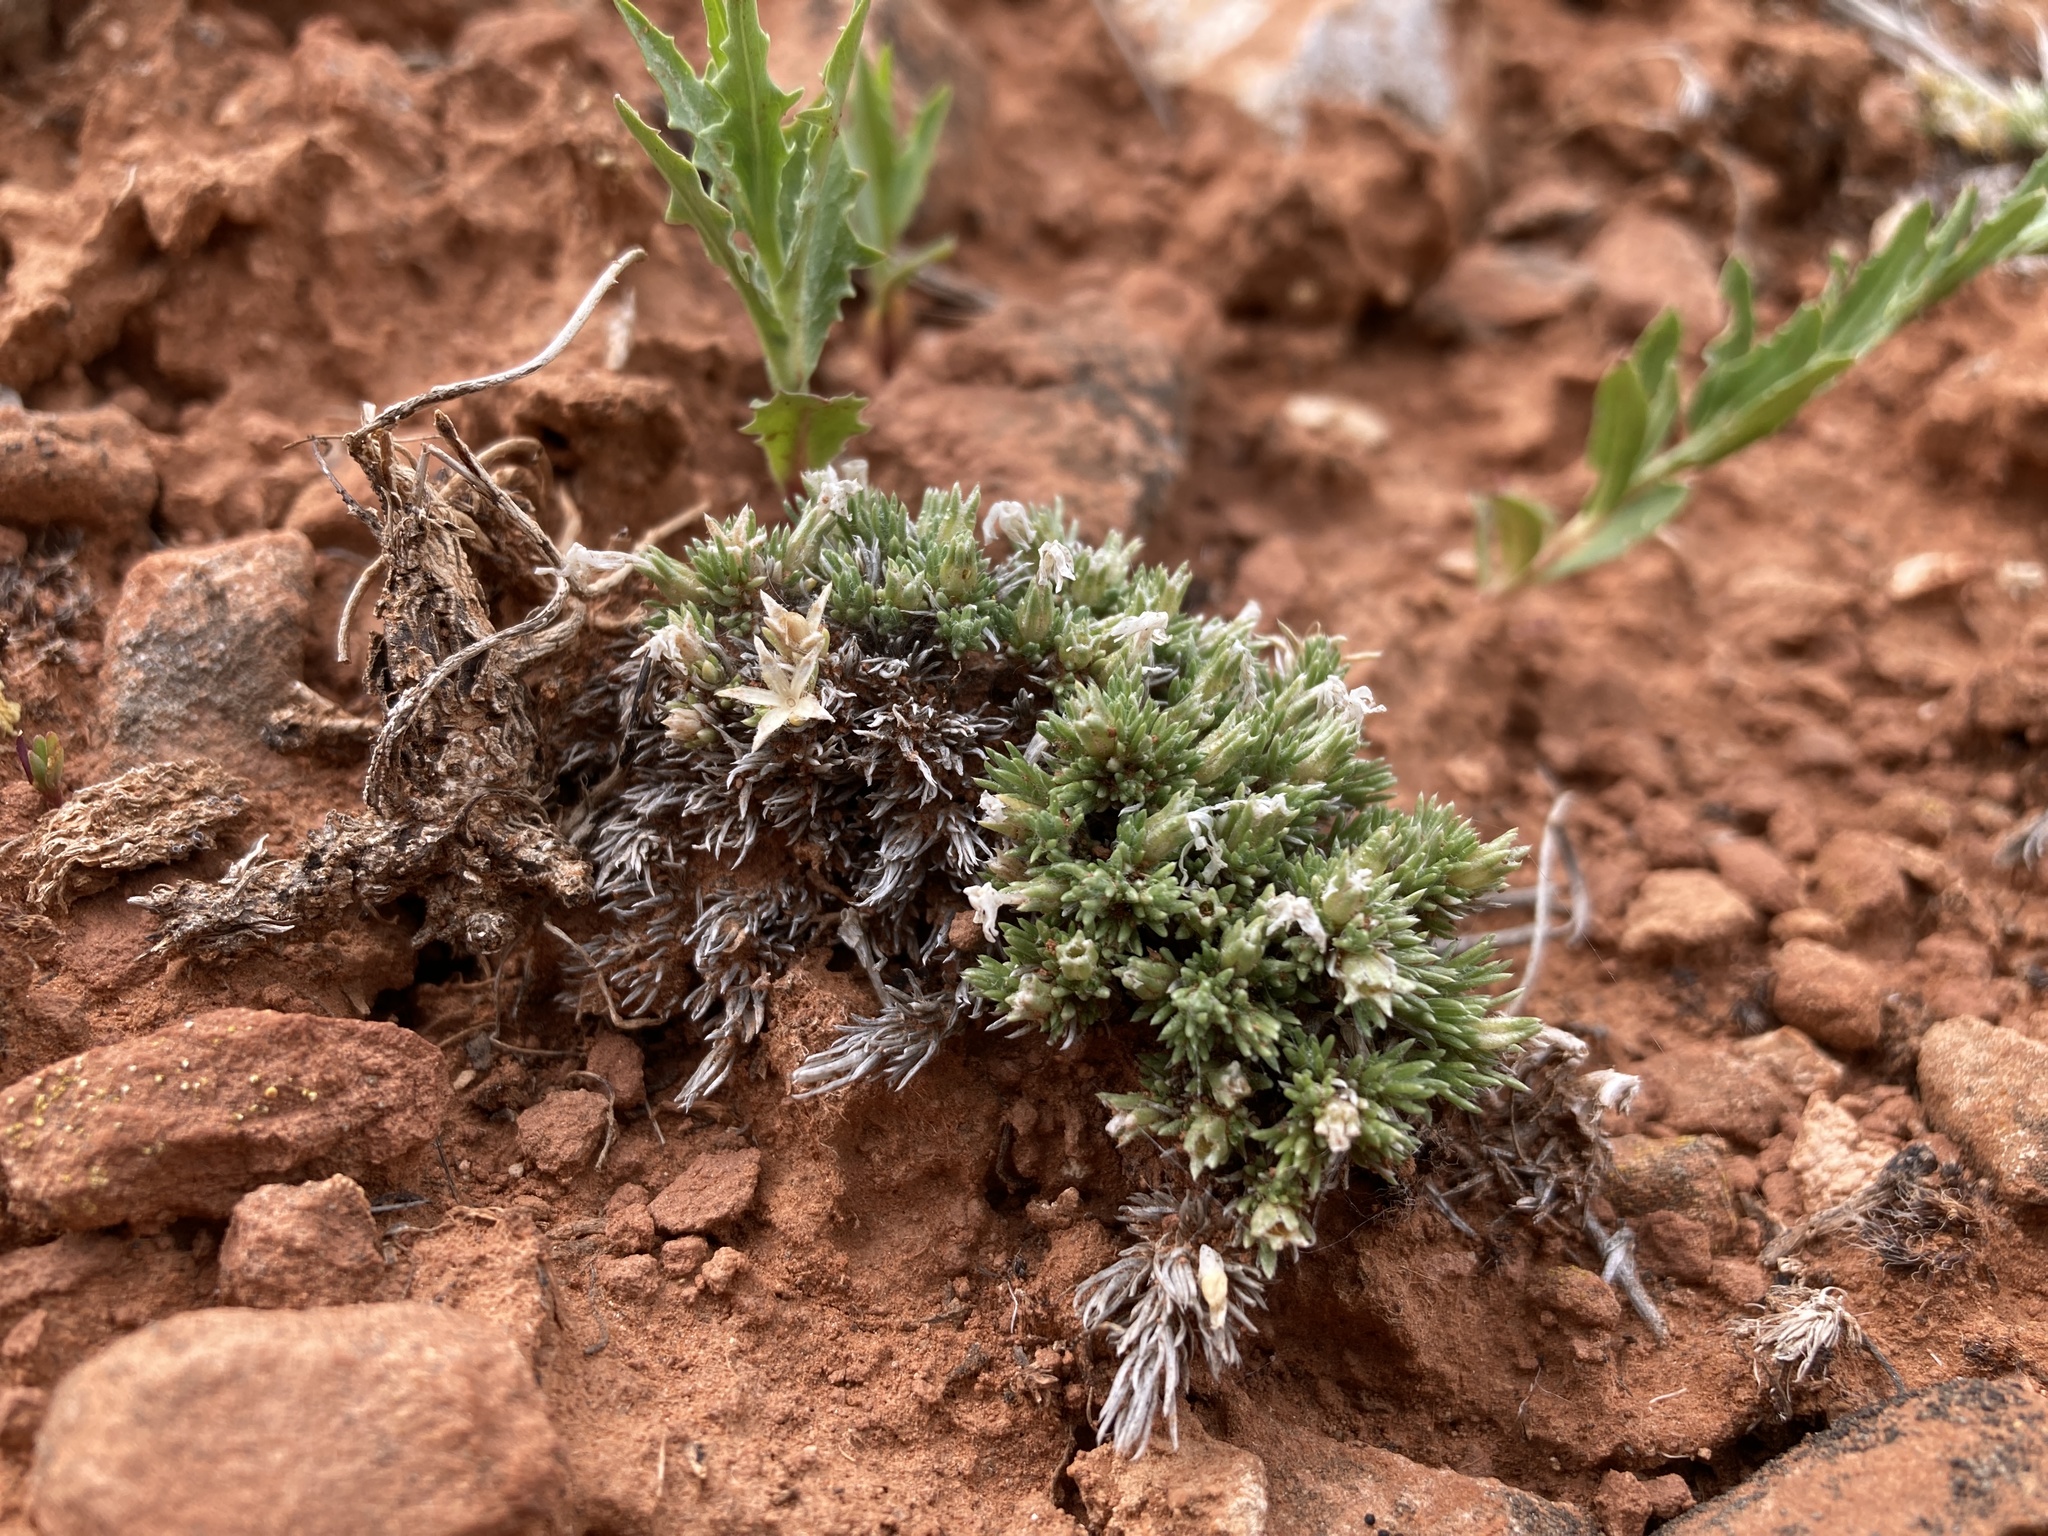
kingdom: Plantae
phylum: Tracheophyta
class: Magnoliopsida
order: Ericales
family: Polemoniaceae
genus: Phlox
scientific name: Phlox hoodii
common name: Moss phlox
